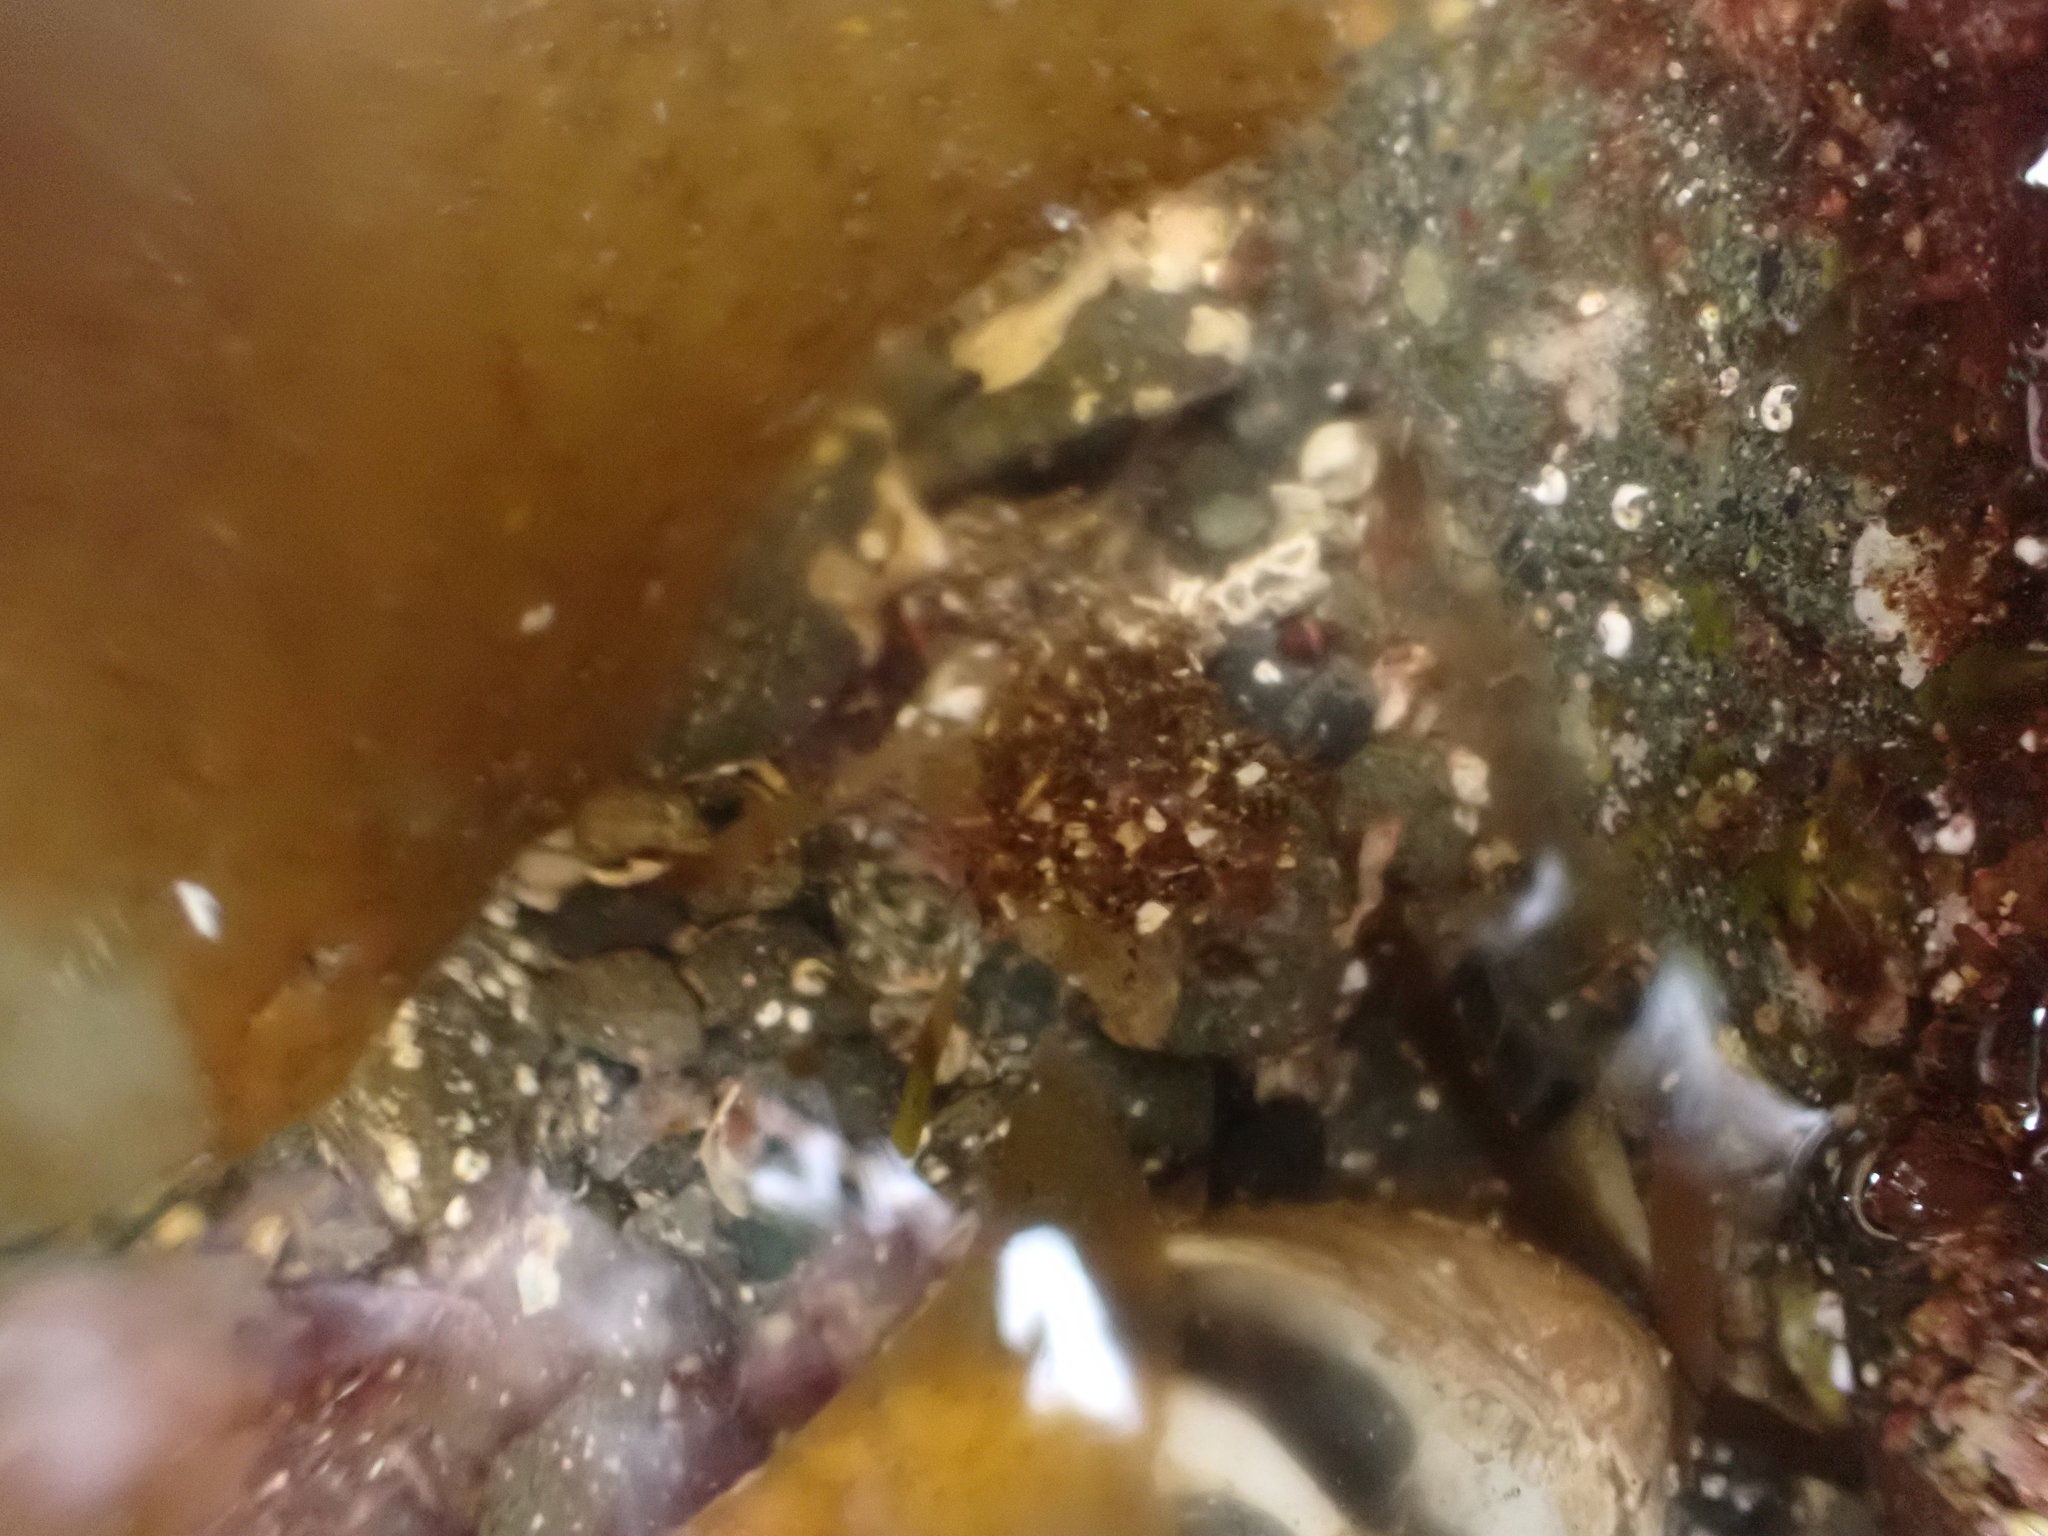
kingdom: Animalia
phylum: Annelida
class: Polychaeta
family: Terebellidae
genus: Pista
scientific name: Pista elongata
